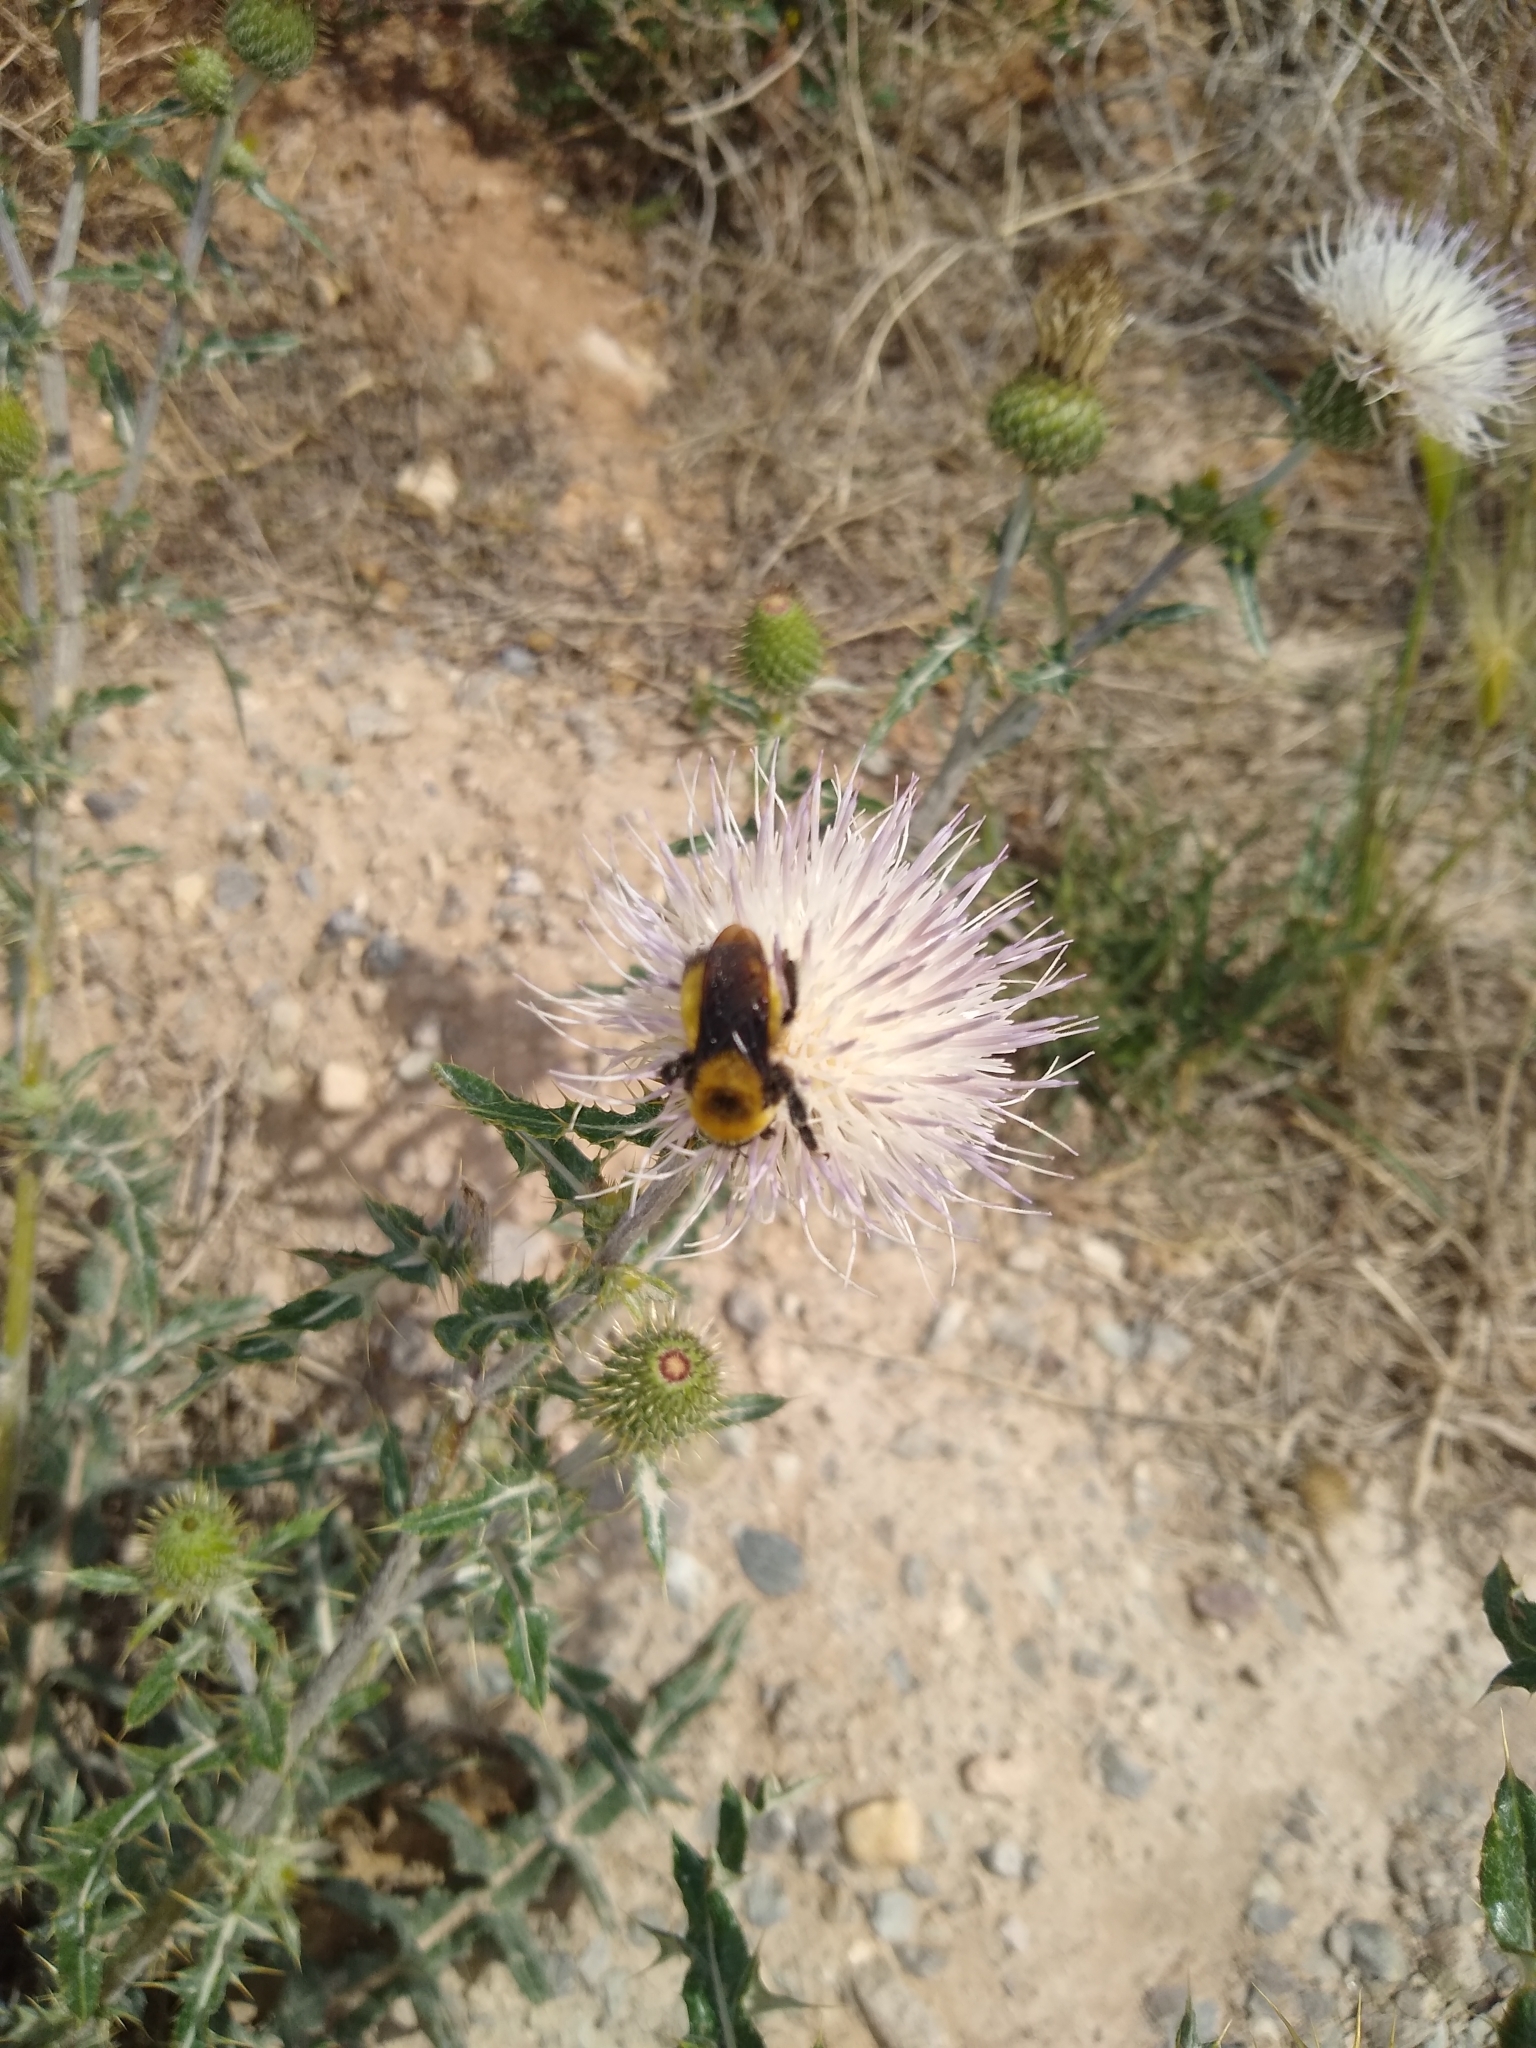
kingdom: Animalia
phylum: Arthropoda
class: Insecta
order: Hymenoptera
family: Apidae
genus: Bombus
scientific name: Bombus nevadensis
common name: Nevada bumble bee
